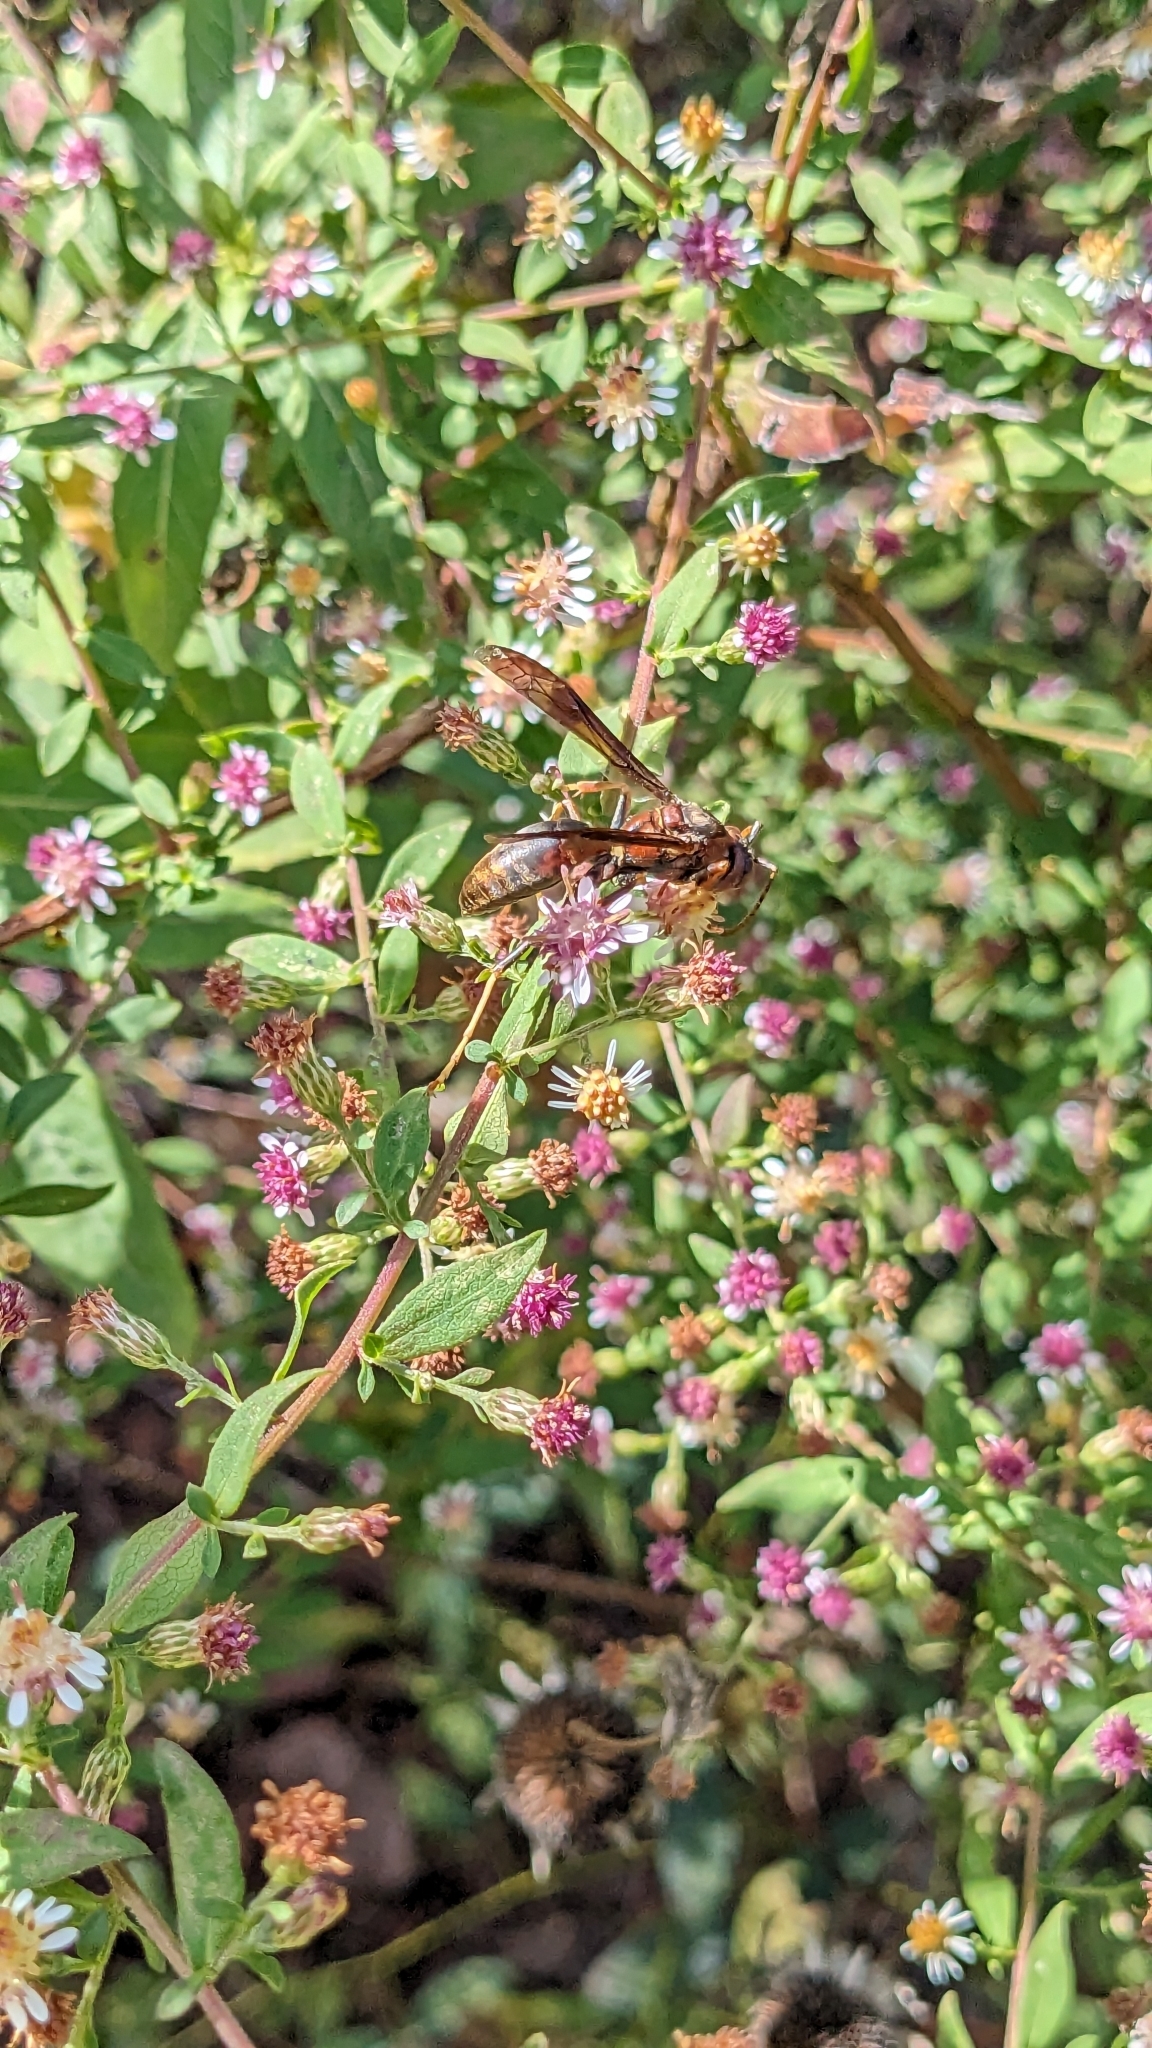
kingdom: Animalia
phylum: Arthropoda
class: Insecta
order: Hymenoptera
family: Eumenidae
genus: Polistes
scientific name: Polistes metricus
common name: Metric paper wasp
